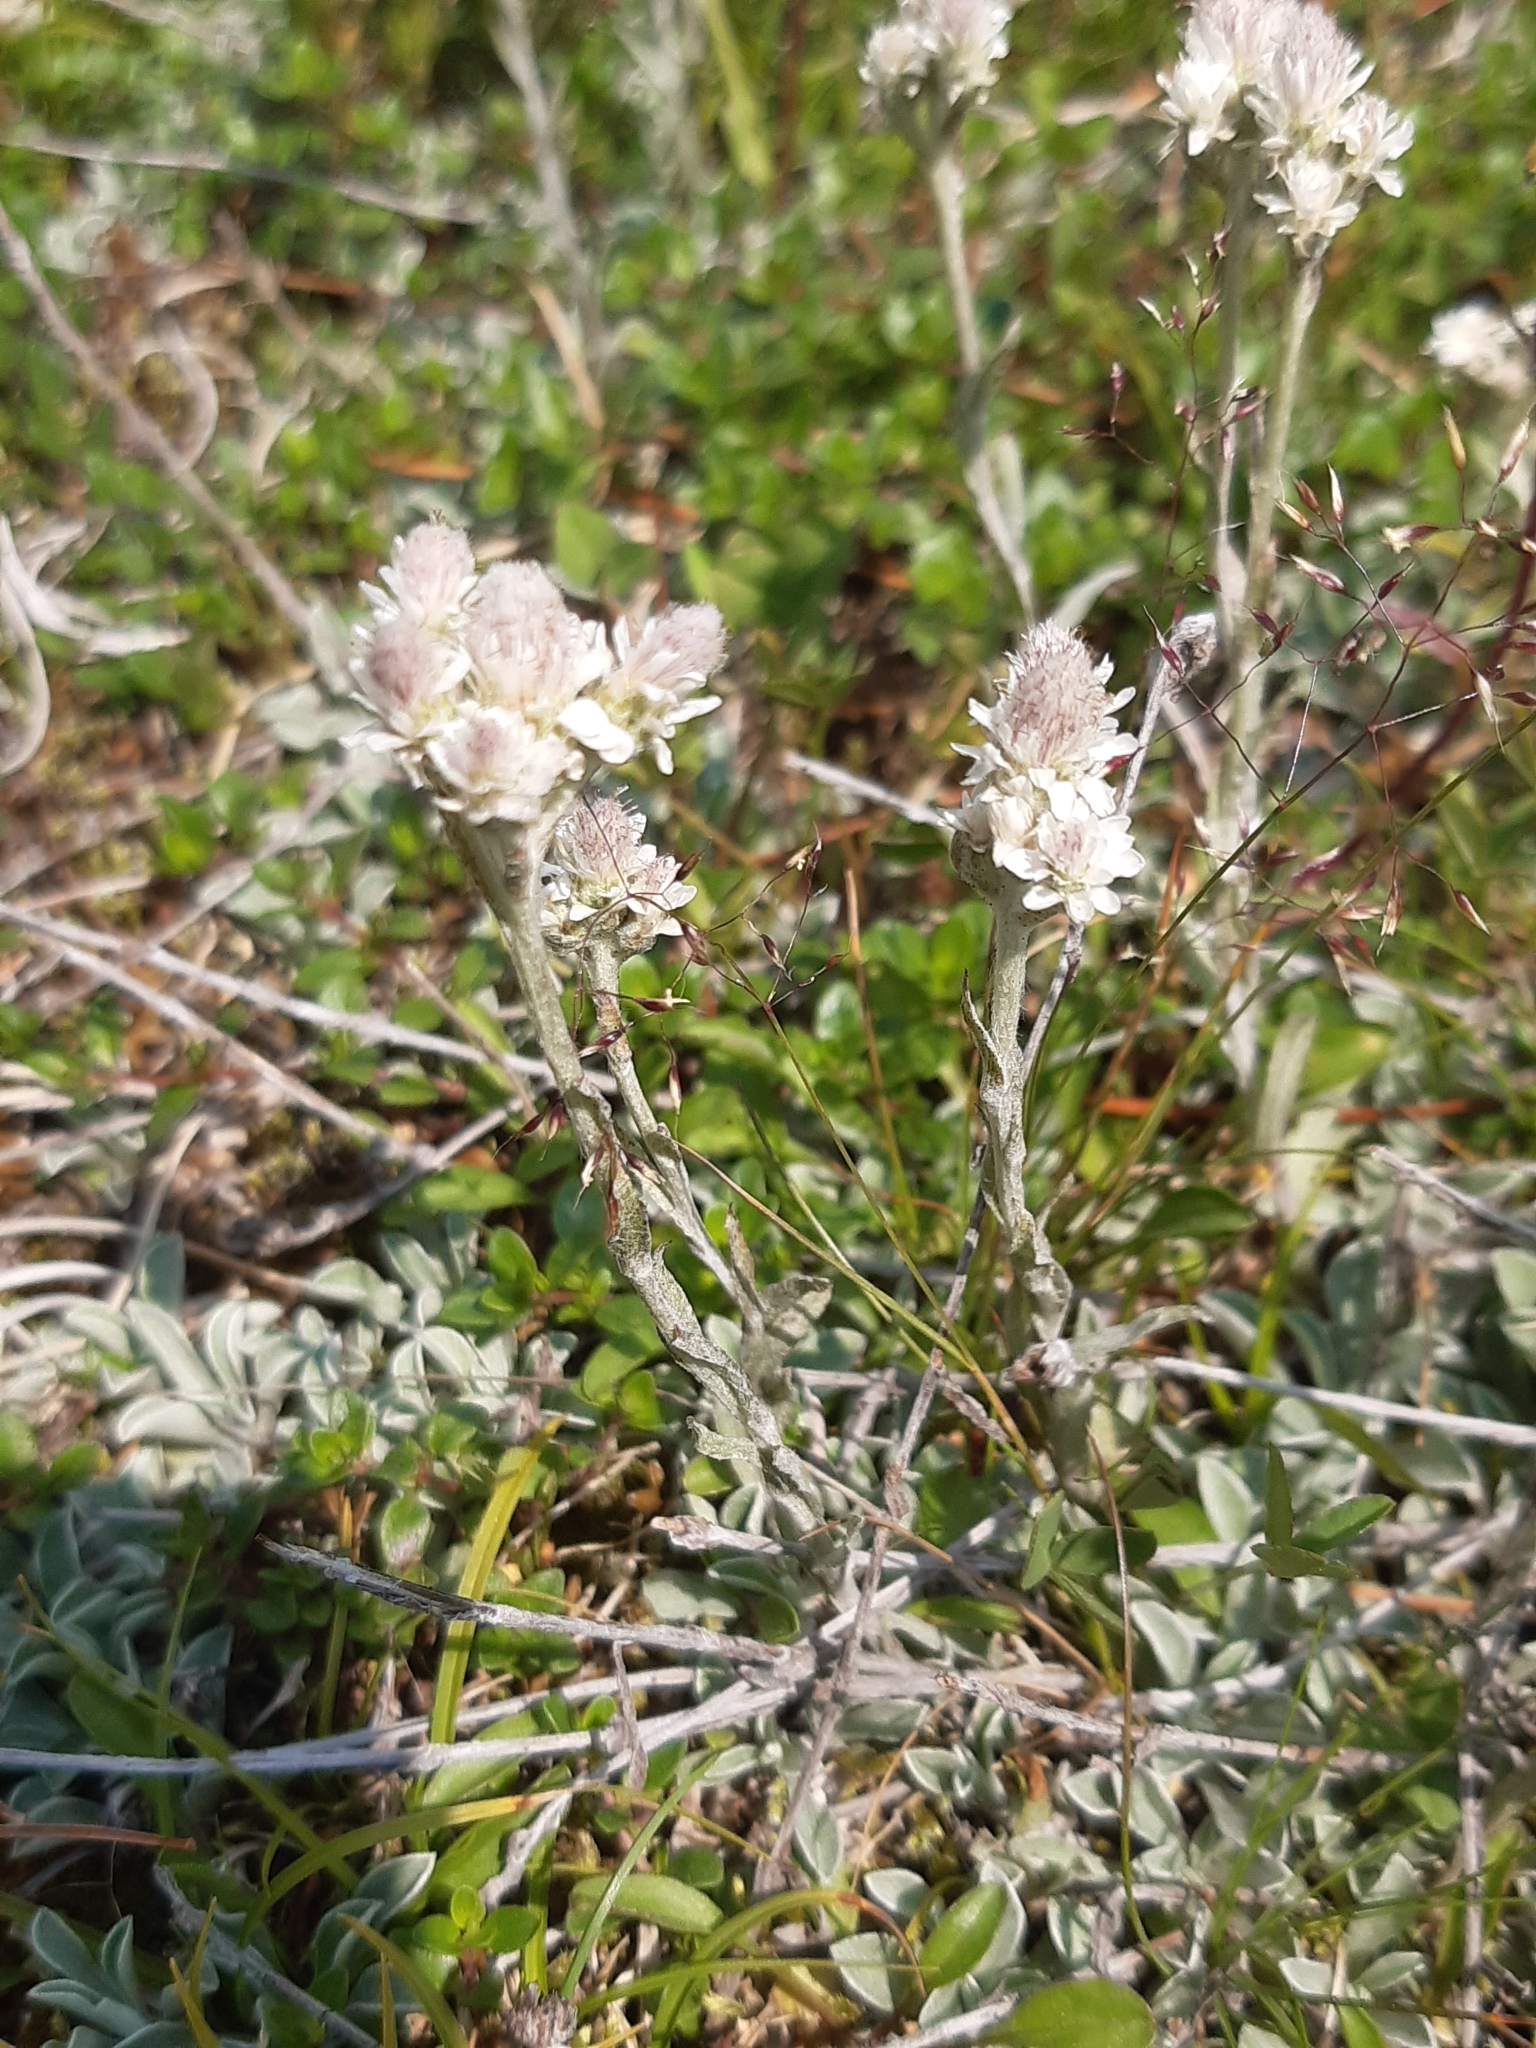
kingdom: Plantae
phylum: Tracheophyta
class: Magnoliopsida
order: Asterales
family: Asteraceae
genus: Antennaria
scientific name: Antennaria dioica
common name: Mountain everlasting
